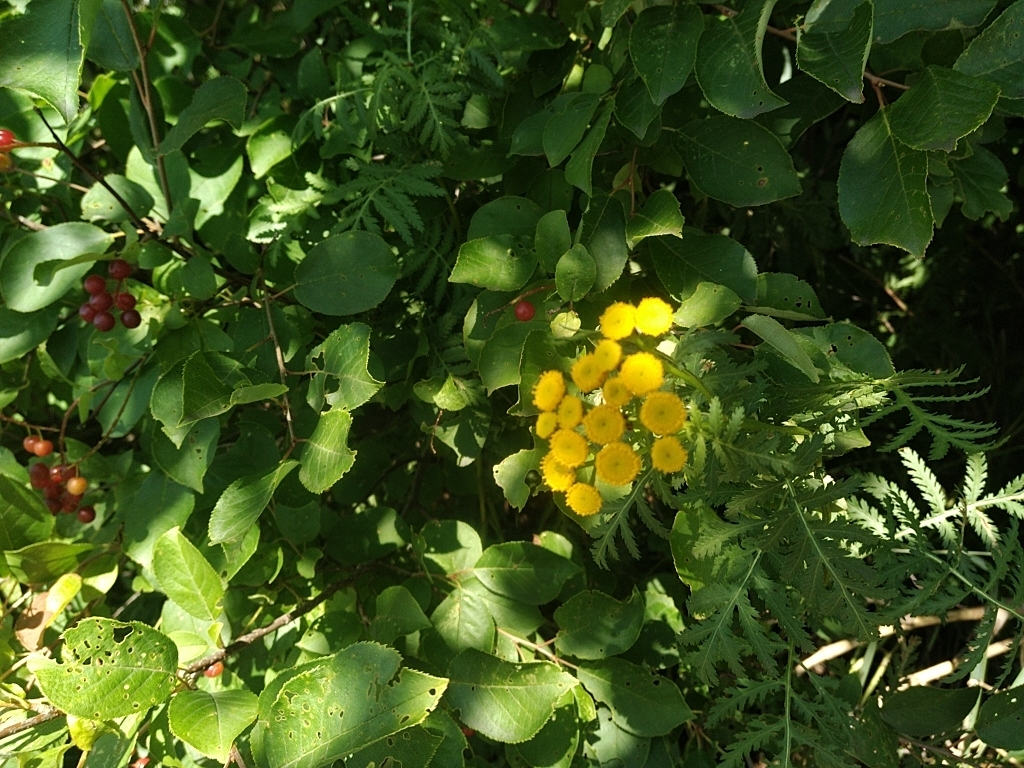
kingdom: Plantae
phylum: Tracheophyta
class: Magnoliopsida
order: Asterales
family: Asteraceae
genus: Tanacetum
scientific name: Tanacetum vulgare
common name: Common tansy
